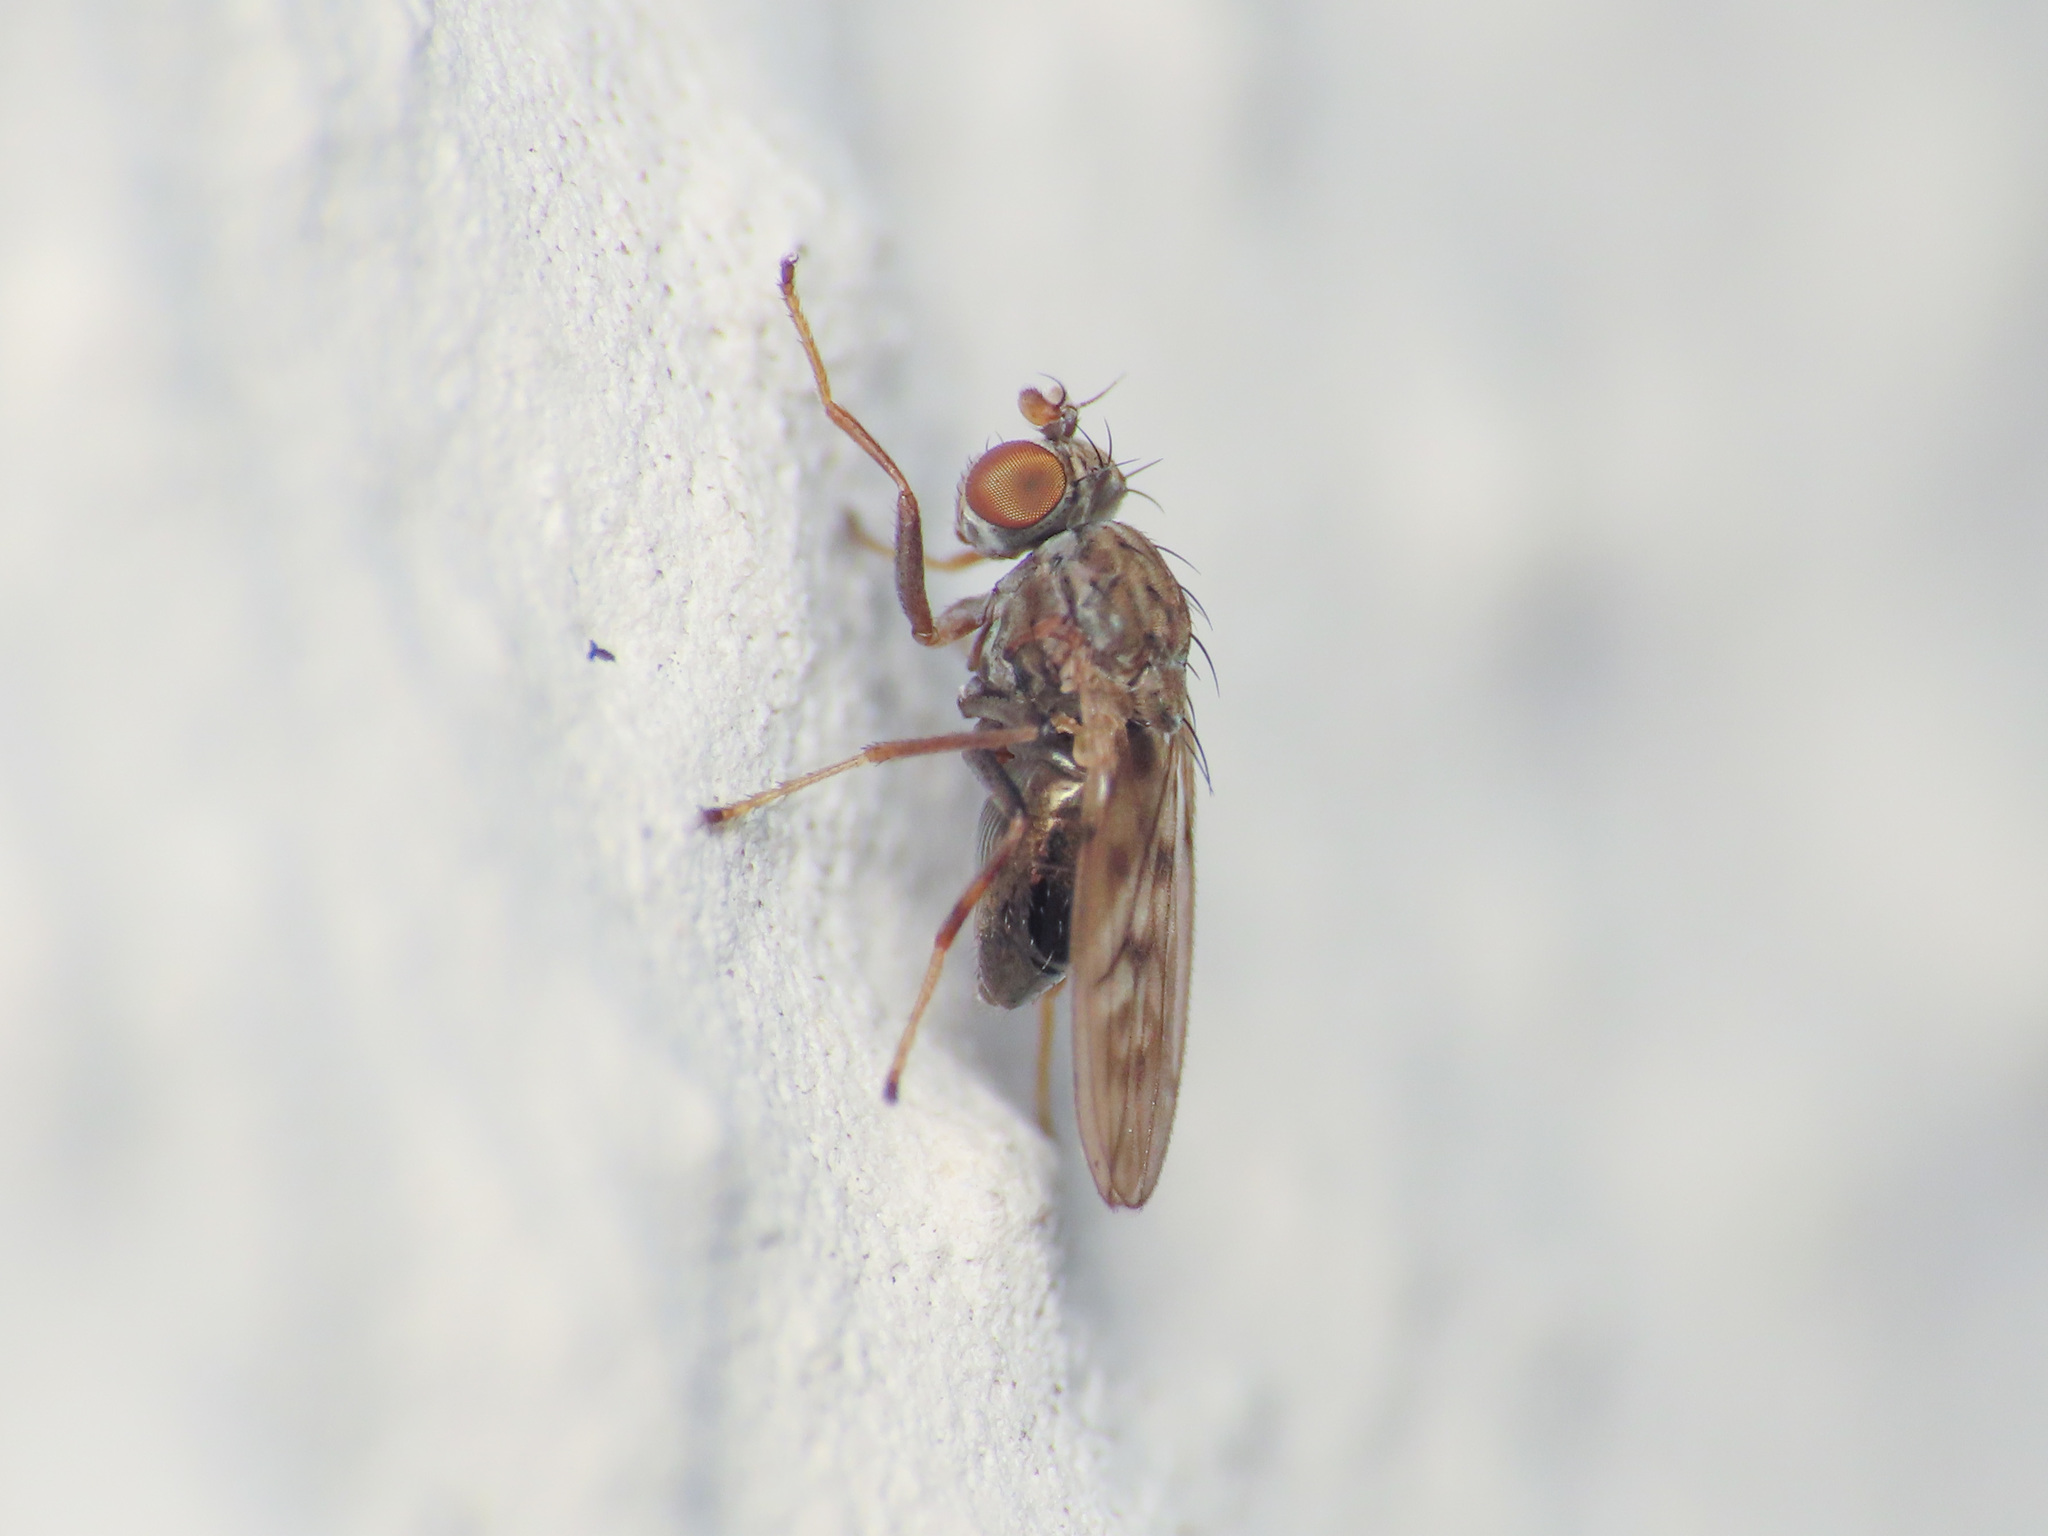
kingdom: Animalia
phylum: Arthropoda
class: Insecta
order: Diptera
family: Ephydridae
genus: Philygria
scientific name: Philygria stictica
